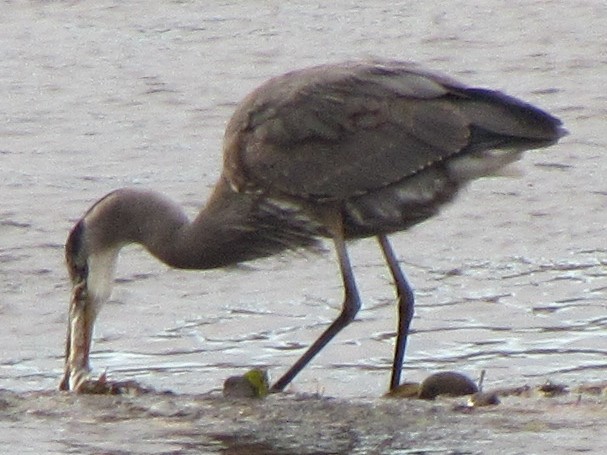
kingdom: Animalia
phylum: Chordata
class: Aves
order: Pelecaniformes
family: Ardeidae
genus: Ardea
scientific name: Ardea herodias
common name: Great blue heron
